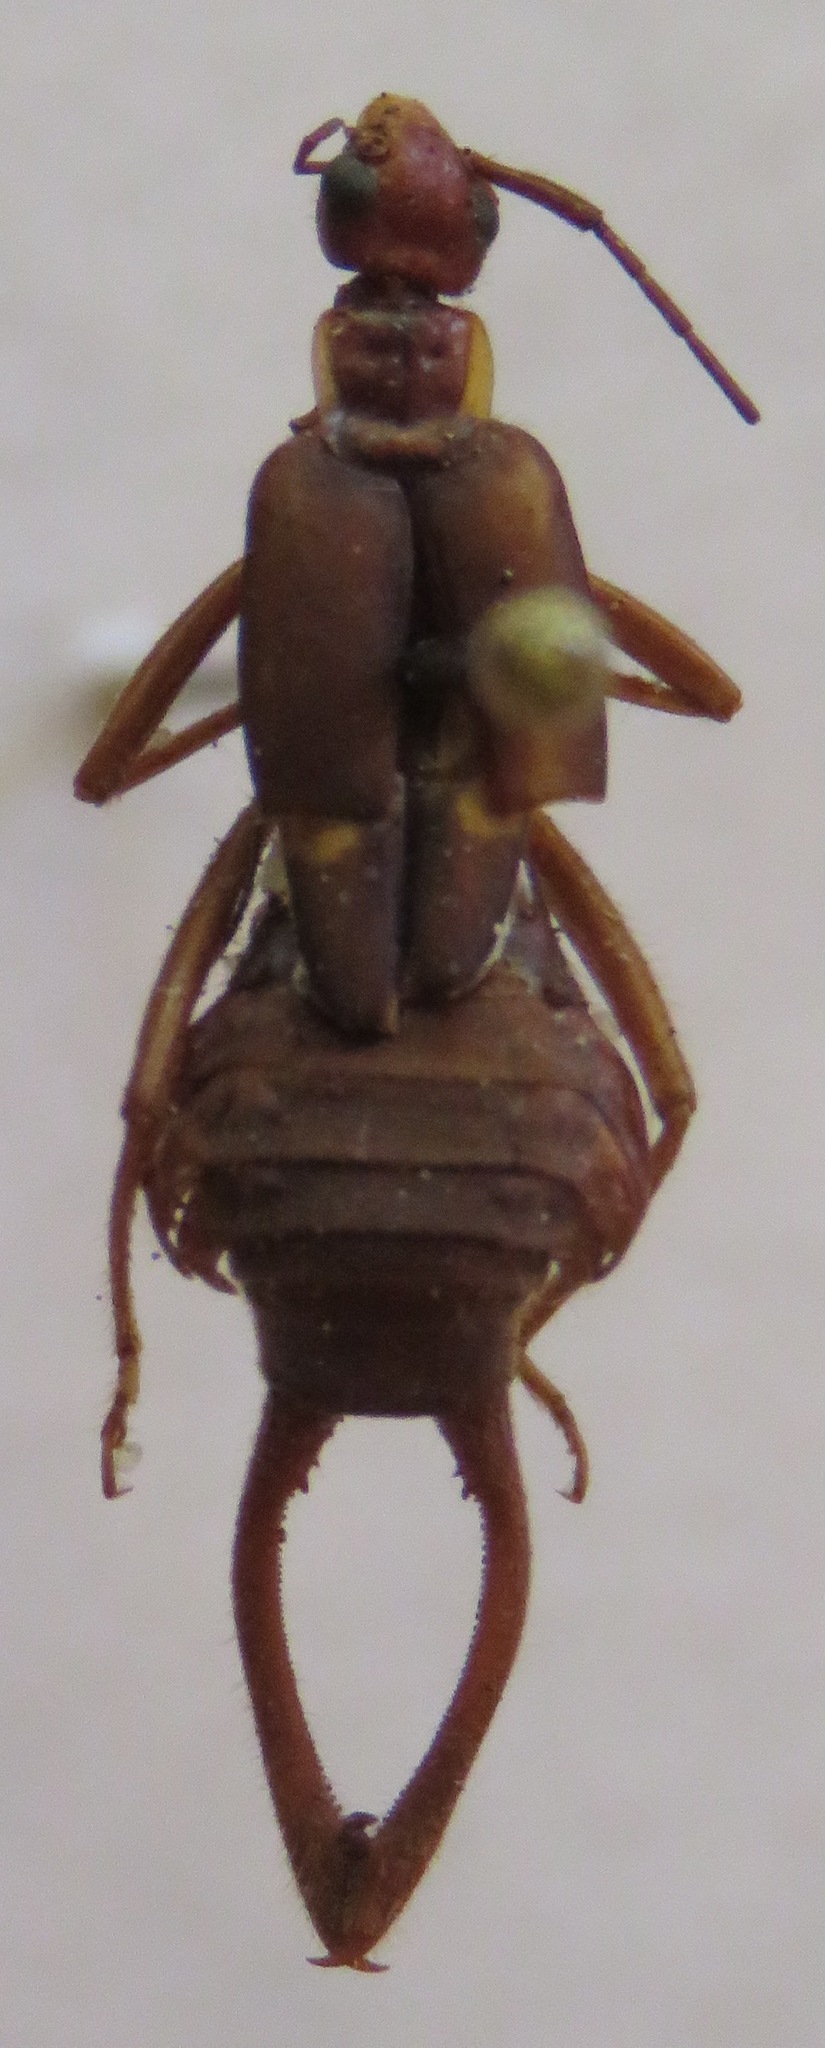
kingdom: Animalia
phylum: Arthropoda
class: Insecta
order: Dermaptera
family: Forficulidae
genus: Ancistrogaster
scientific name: Ancistrogaster variegata
